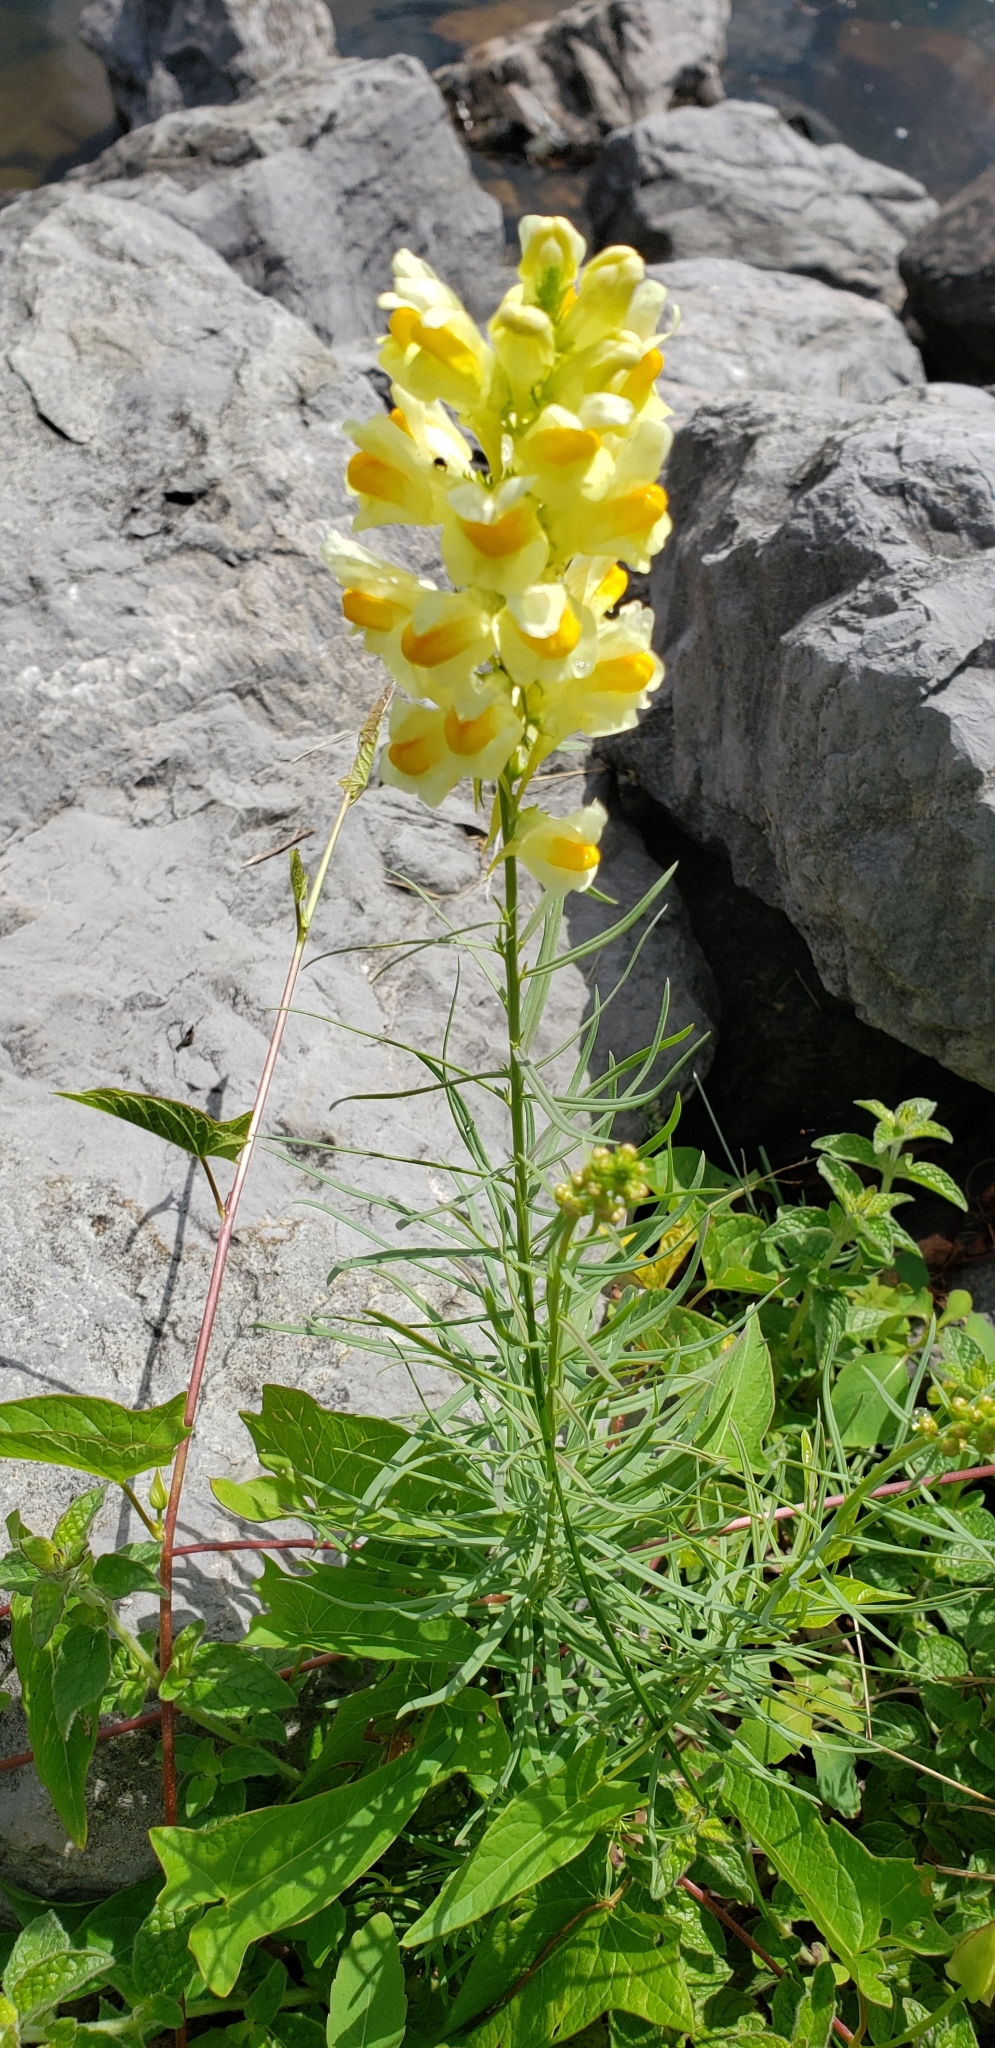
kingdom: Plantae
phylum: Tracheophyta
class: Magnoliopsida
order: Lamiales
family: Plantaginaceae
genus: Linaria
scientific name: Linaria vulgaris
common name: Butter and eggs
